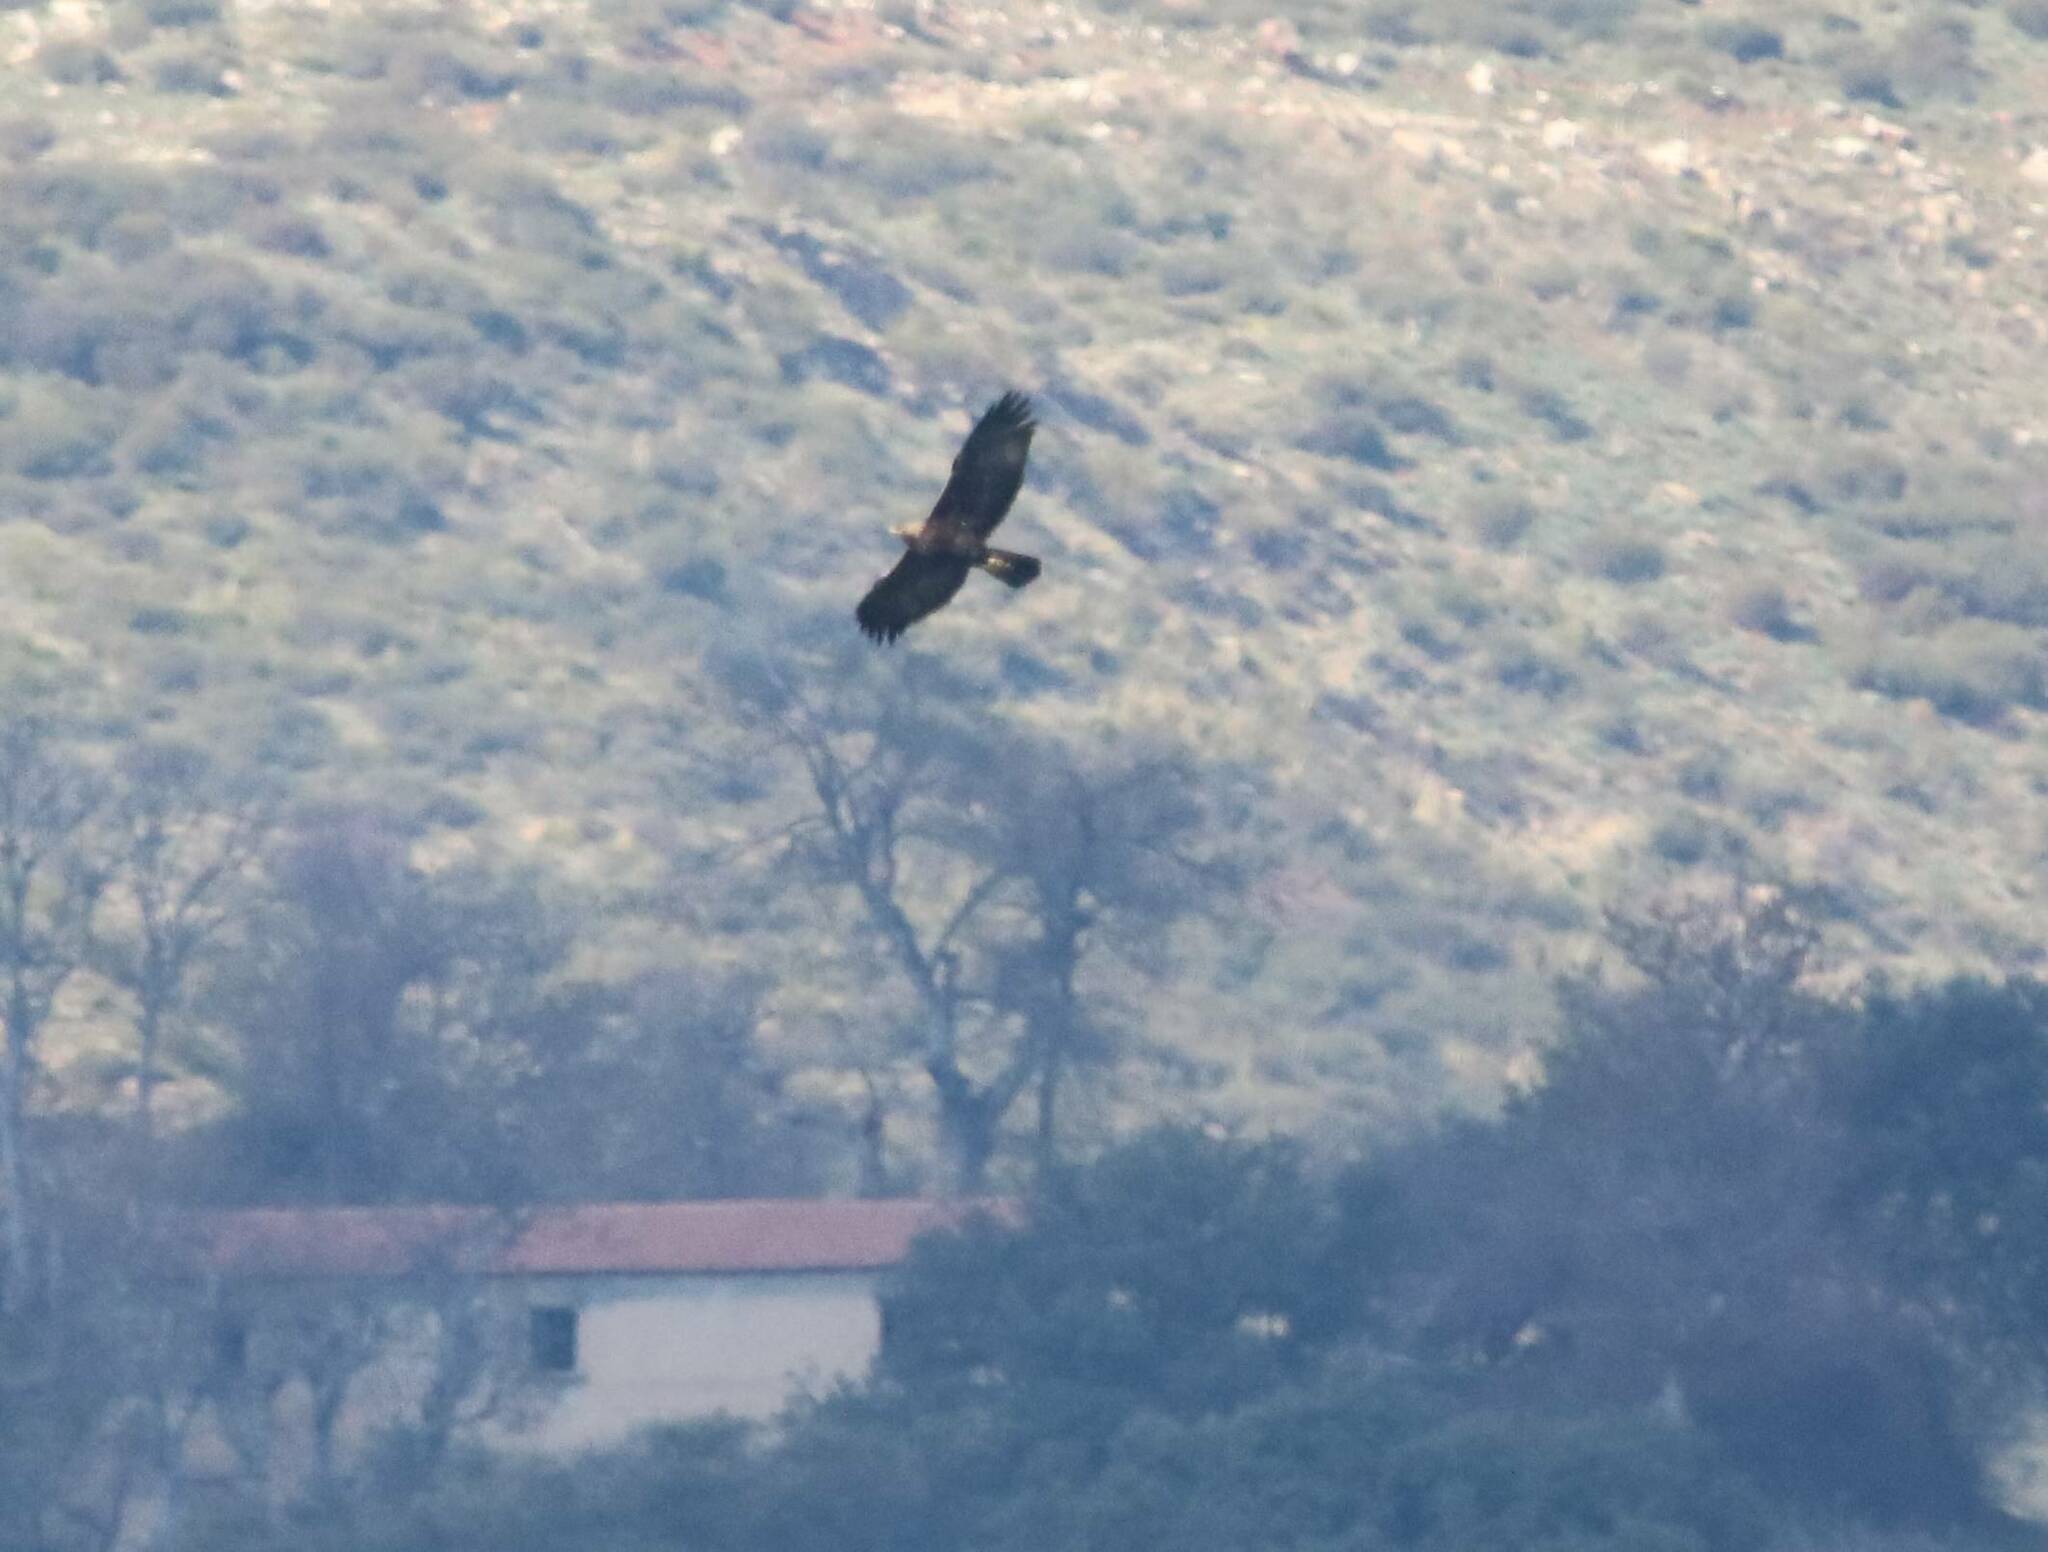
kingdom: Animalia
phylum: Chordata
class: Aves
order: Accipitriformes
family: Accipitridae
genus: Aquila
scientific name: Aquila chrysaetos
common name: Golden eagle
